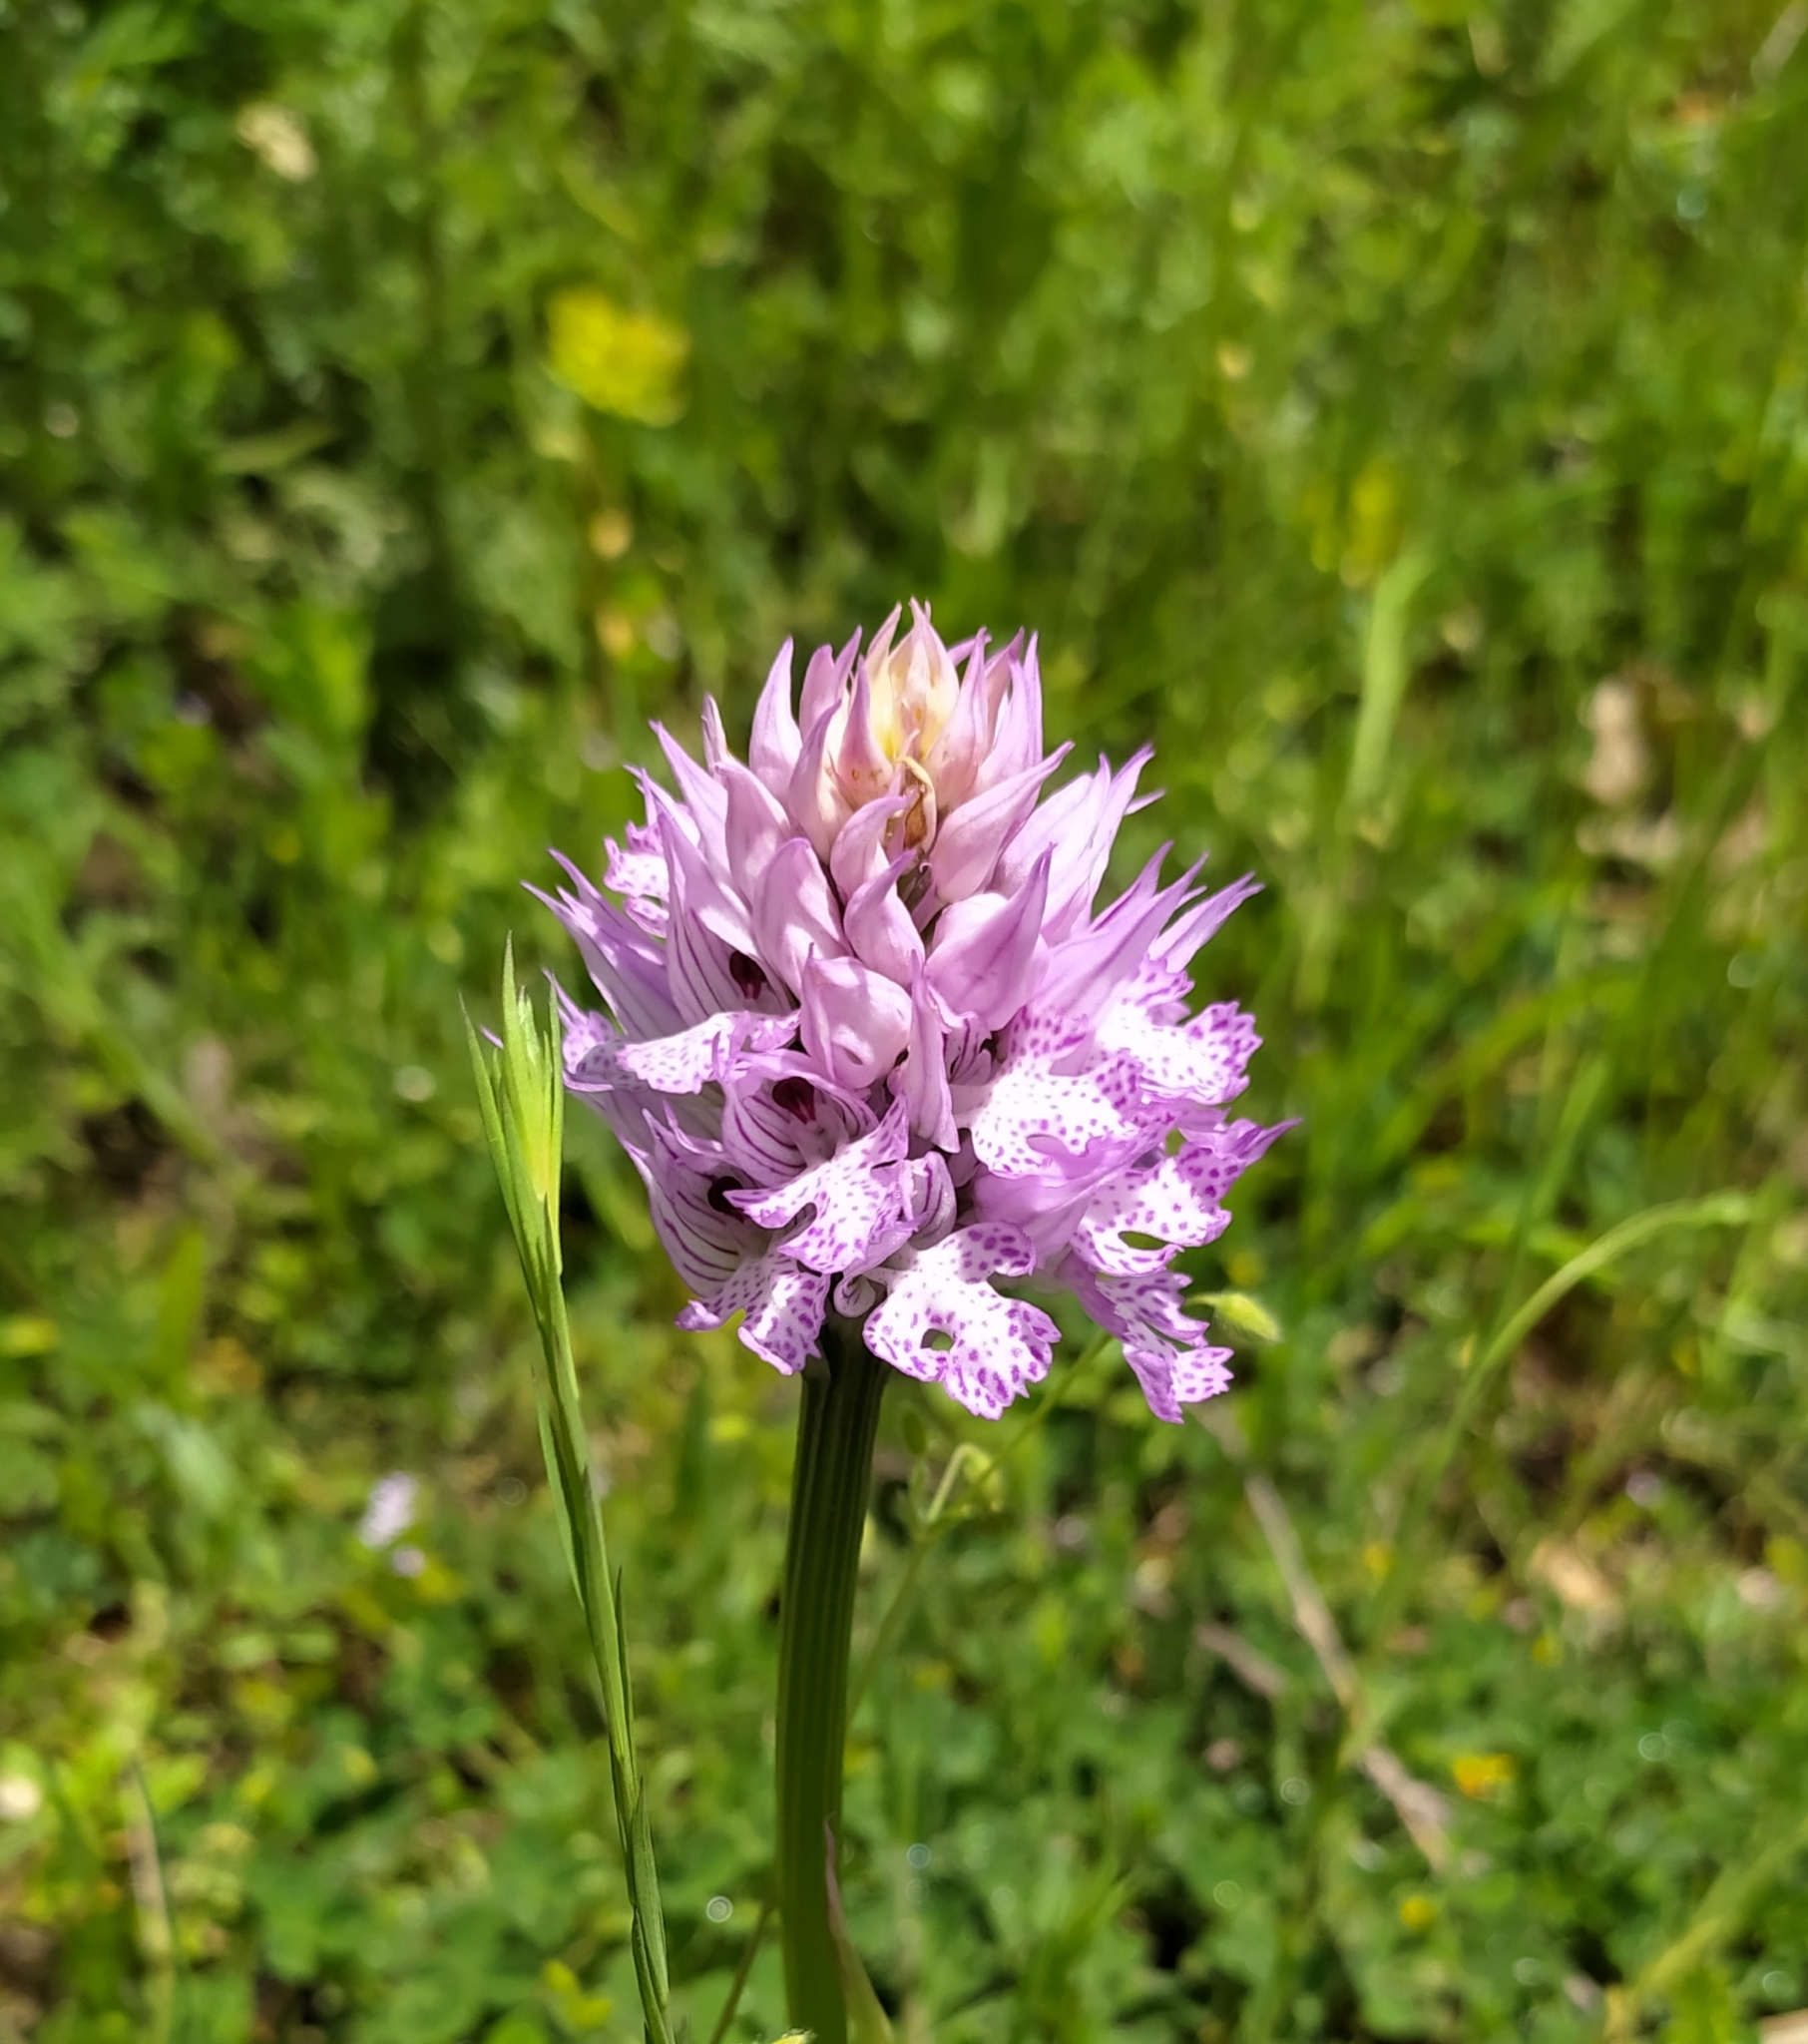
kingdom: Plantae
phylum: Tracheophyta
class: Liliopsida
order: Asparagales
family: Orchidaceae
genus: Neotinea
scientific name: Neotinea tridentata
